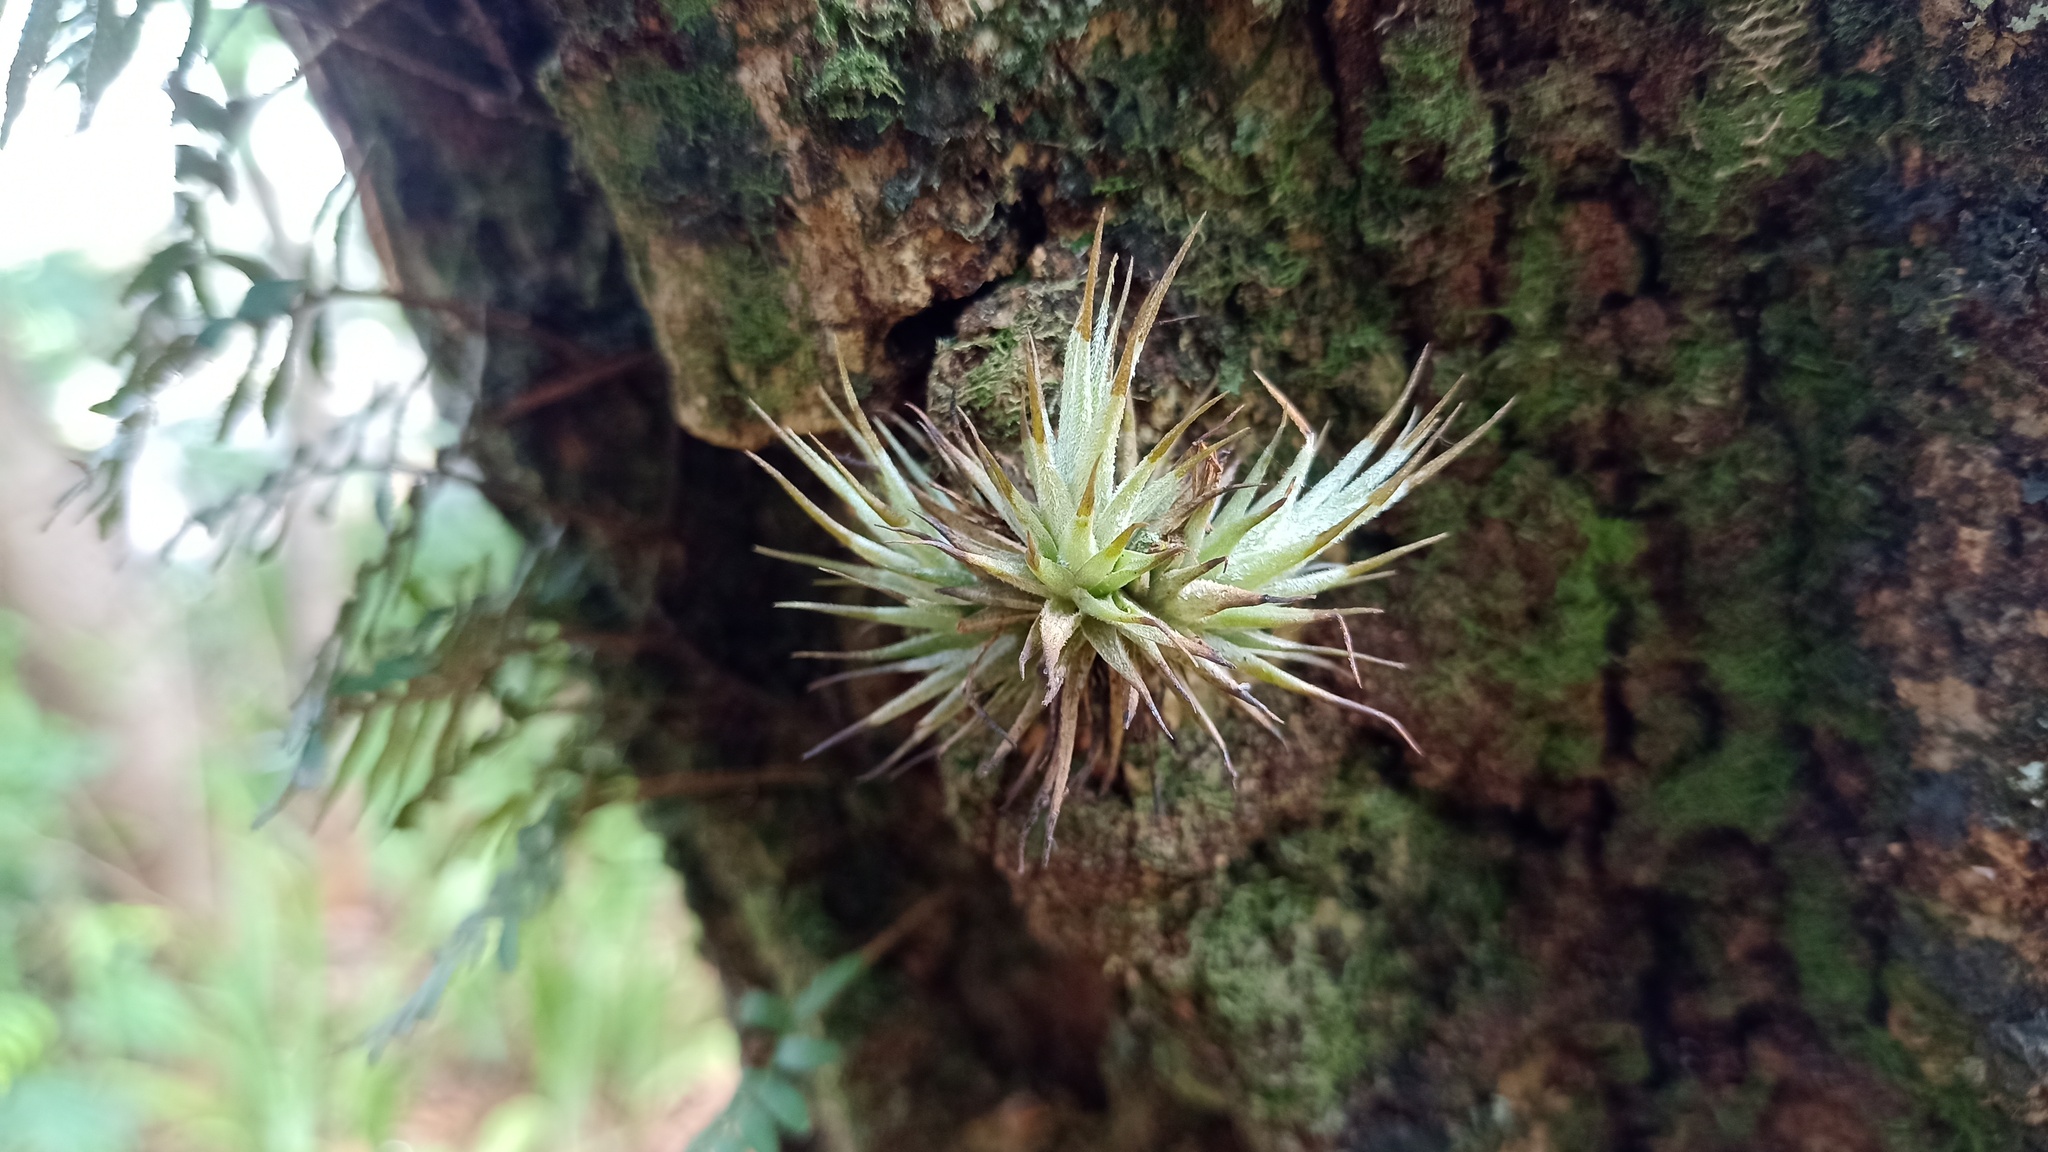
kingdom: Plantae
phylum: Tracheophyta
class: Liliopsida
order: Poales
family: Bromeliaceae
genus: Tillandsia
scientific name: Tillandsia loliacea
